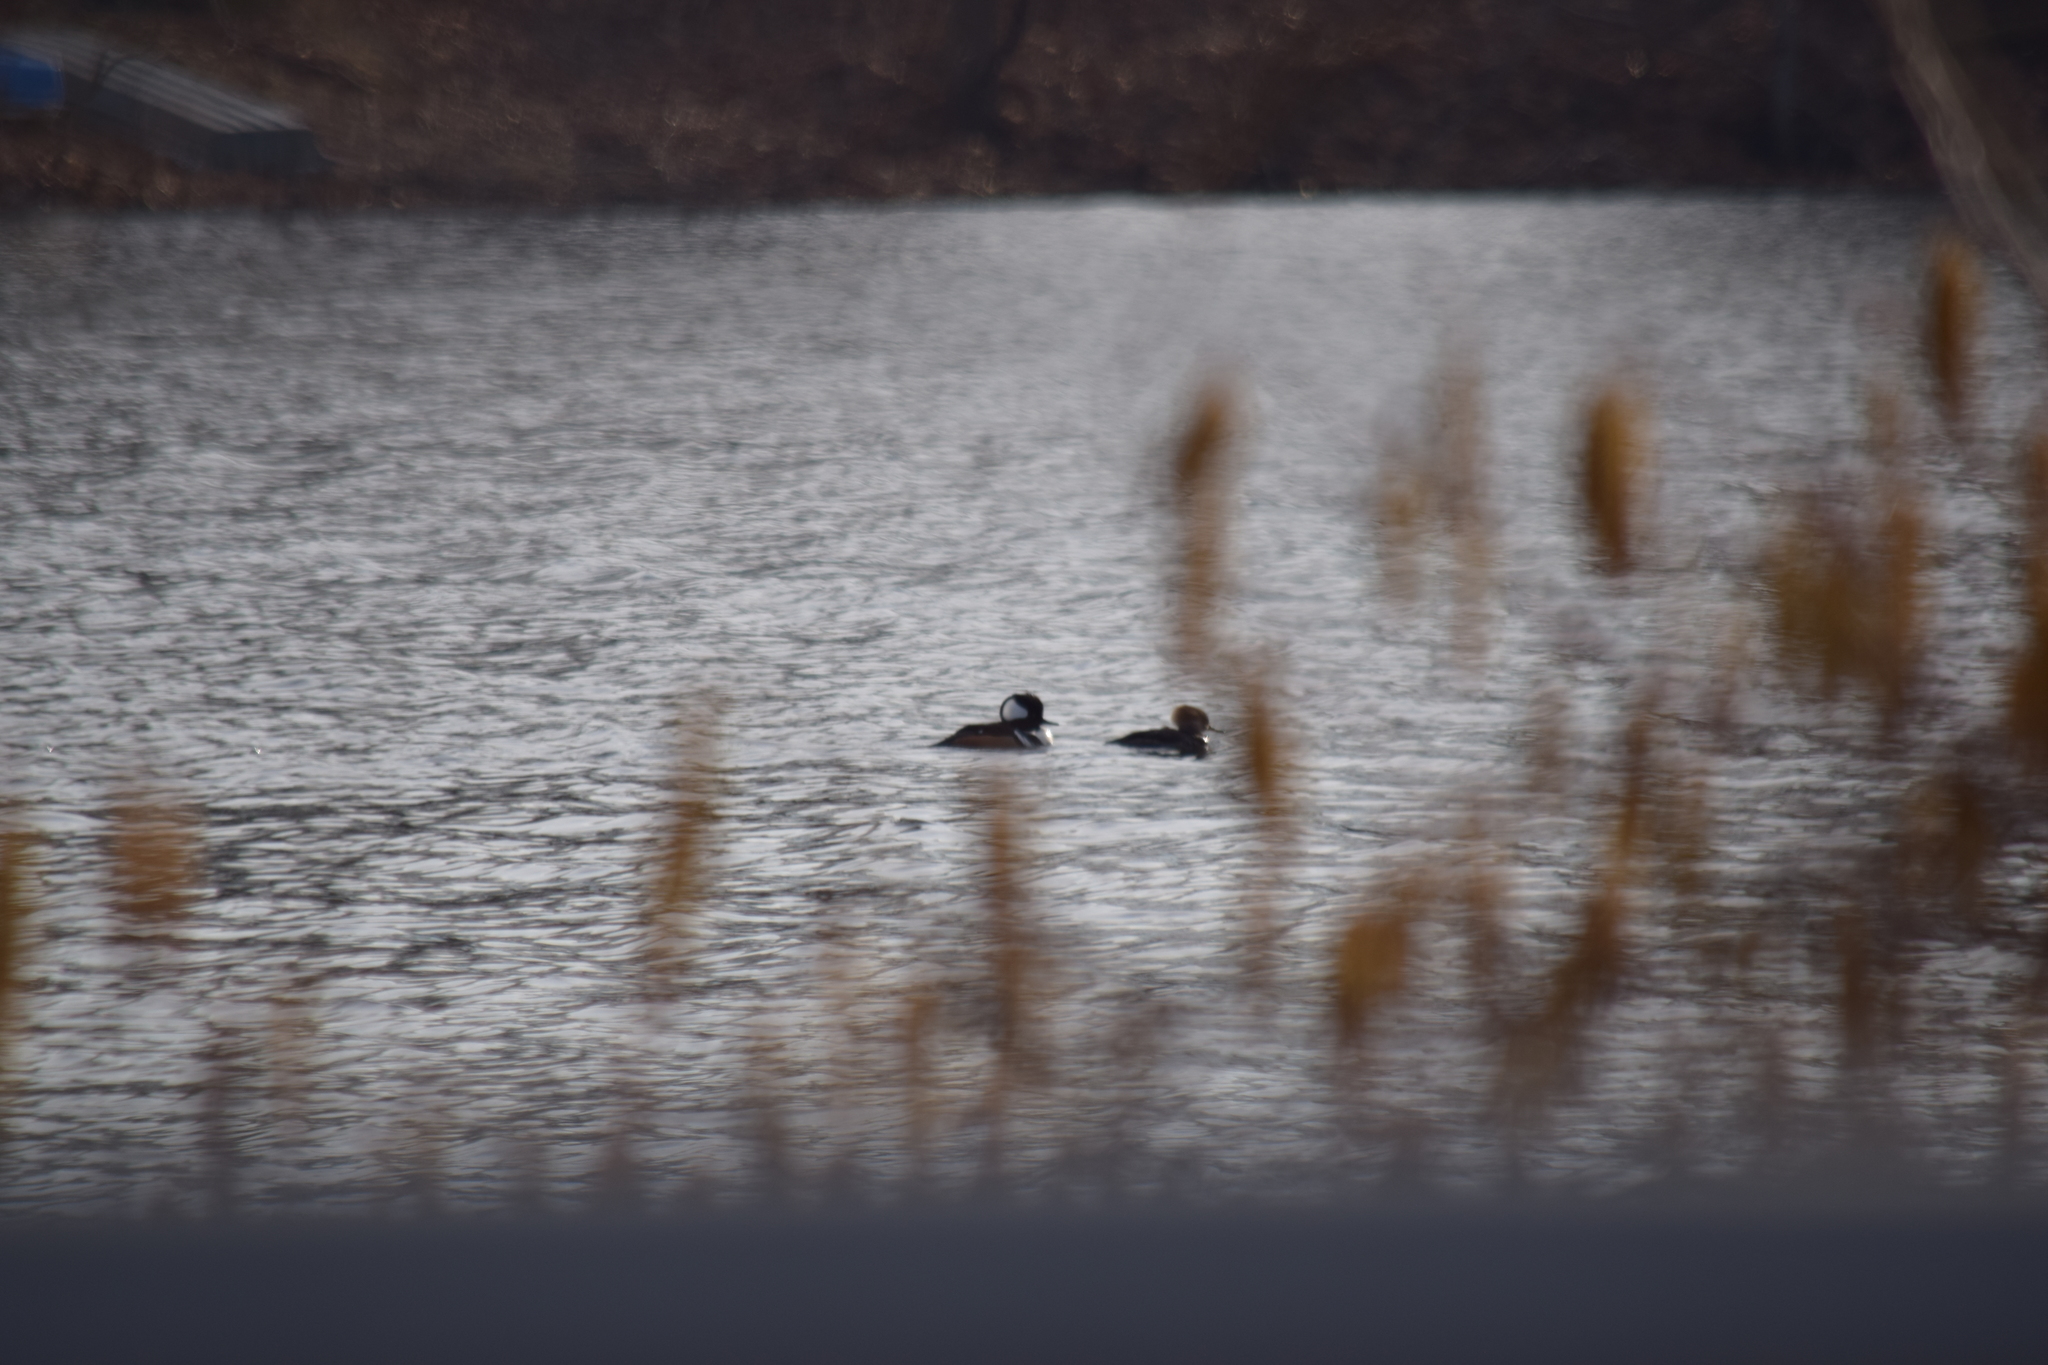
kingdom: Animalia
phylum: Chordata
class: Aves
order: Anseriformes
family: Anatidae
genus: Lophodytes
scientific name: Lophodytes cucullatus
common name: Hooded merganser
